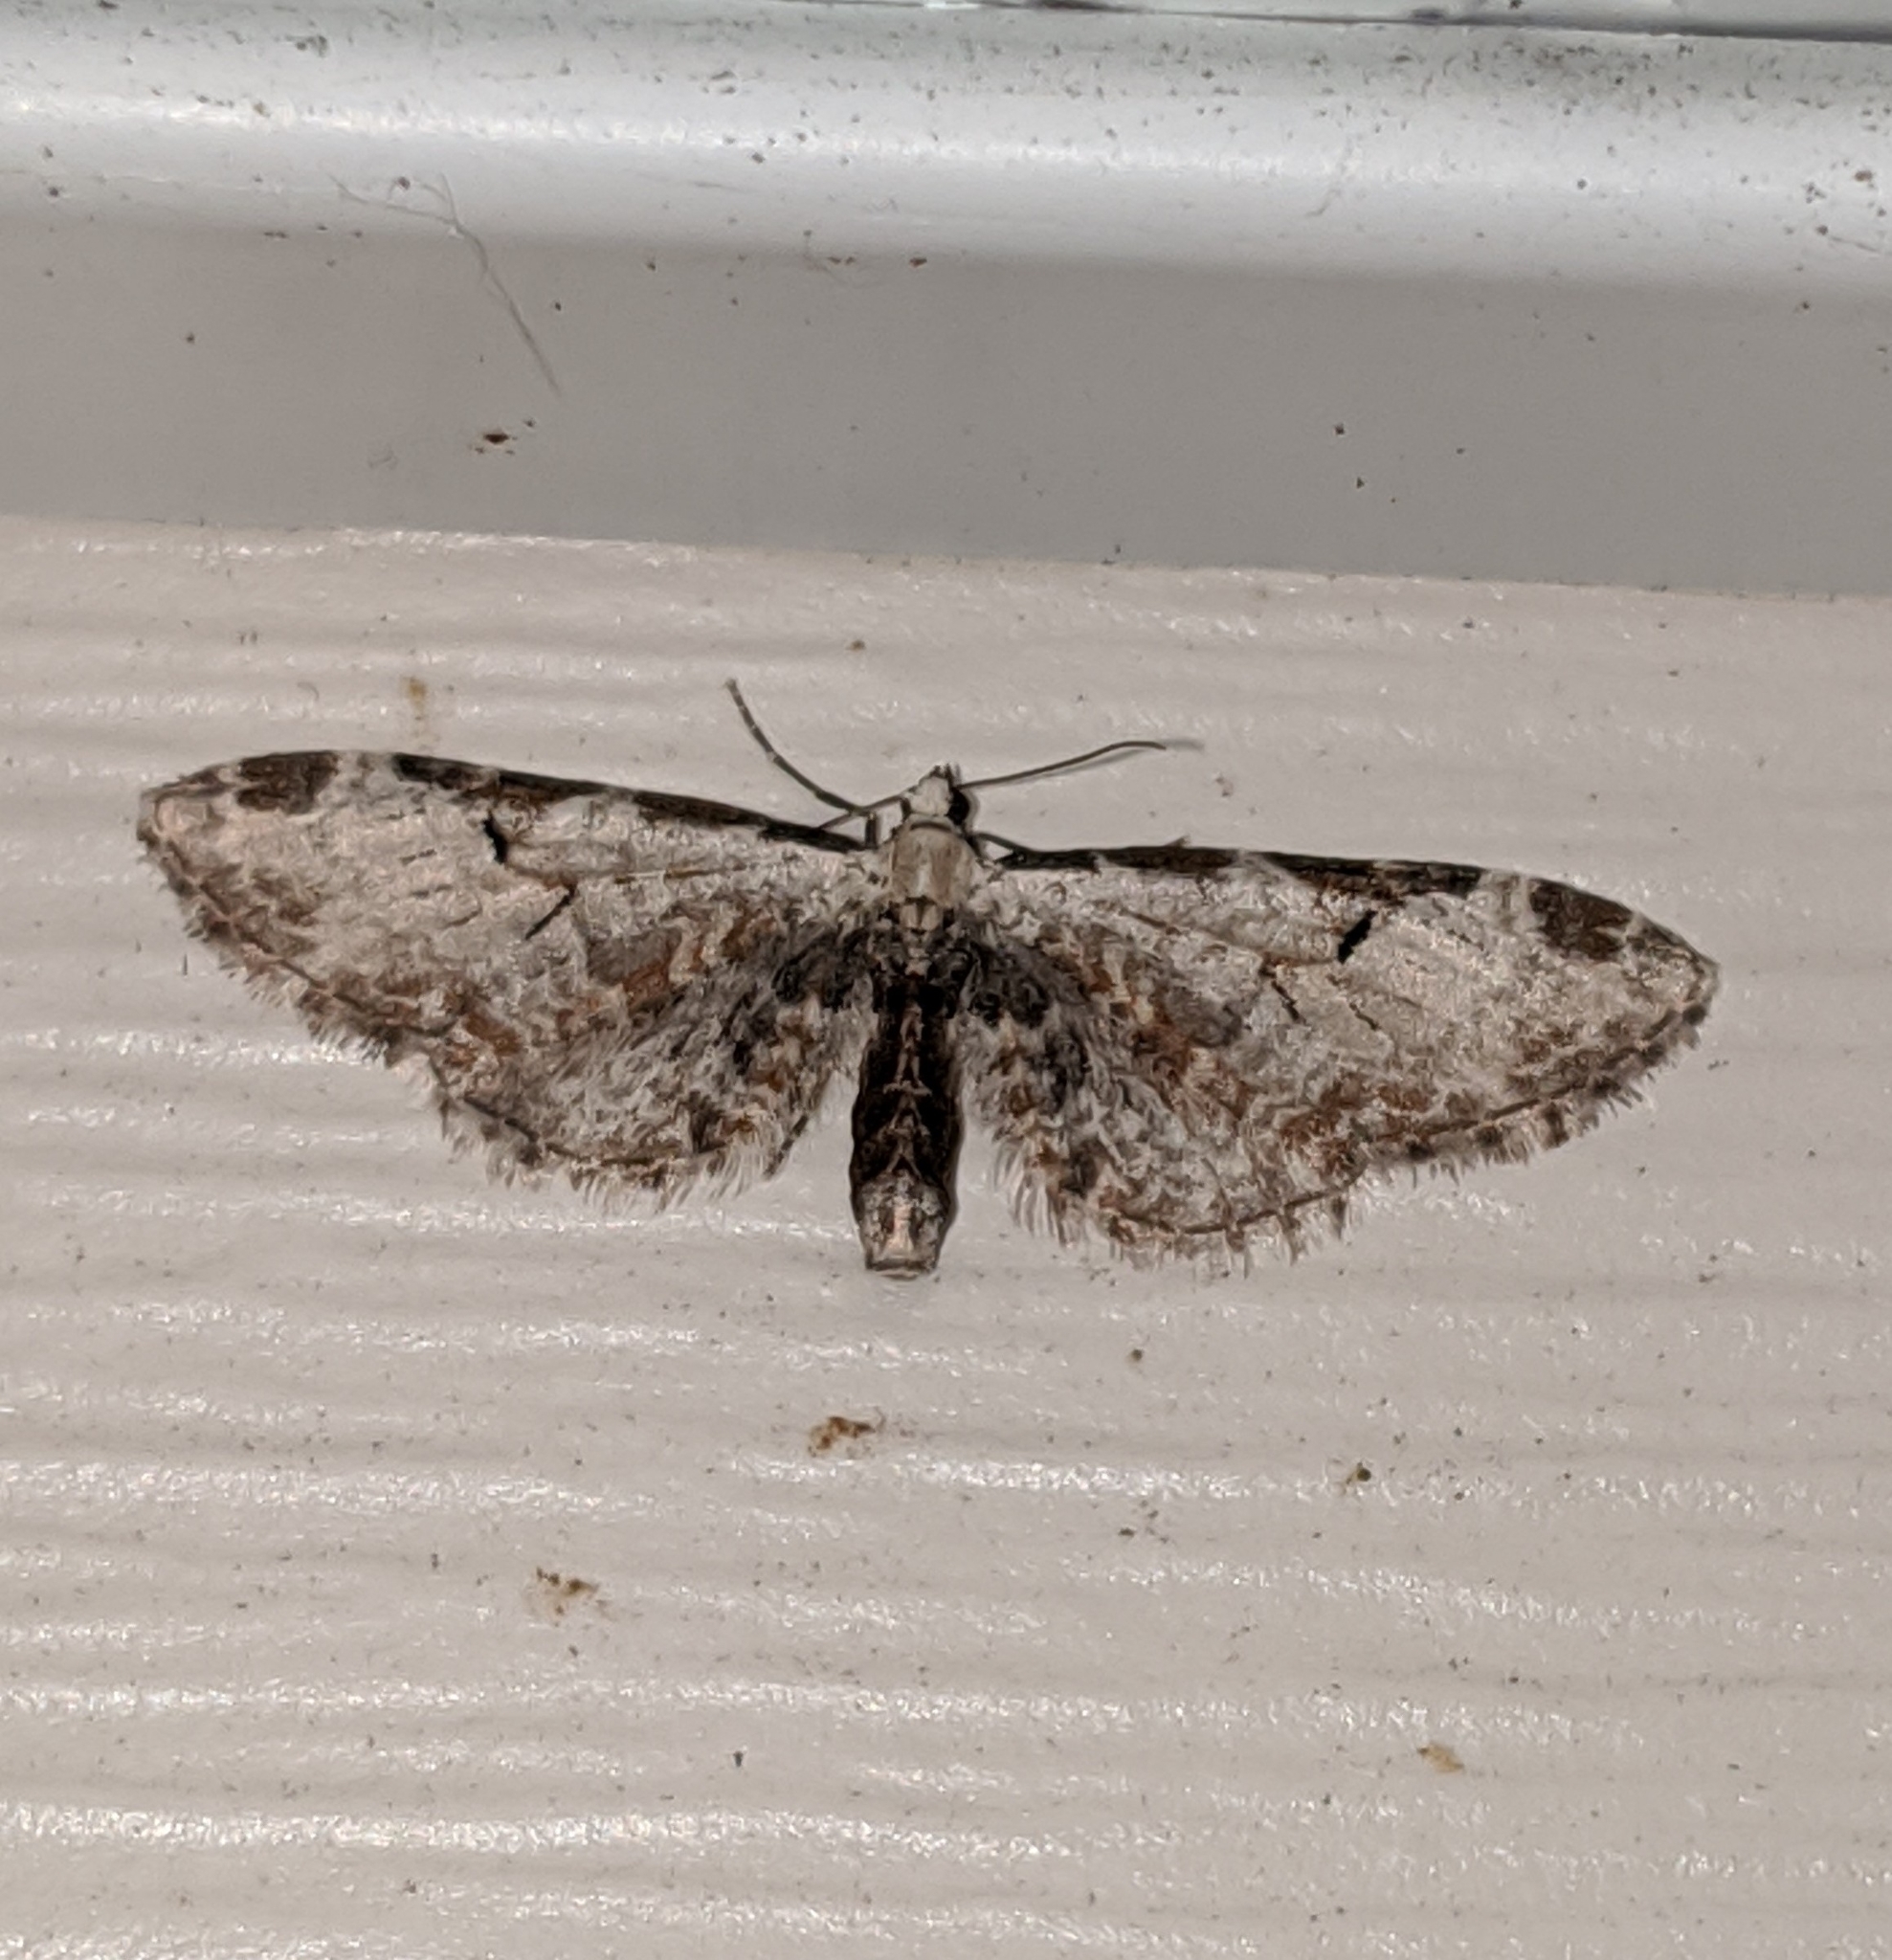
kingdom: Animalia
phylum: Arthropoda
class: Insecta
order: Lepidoptera
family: Geometridae
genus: Eupithecia
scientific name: Eupithecia ravocostaliata
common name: Great varigated pug
